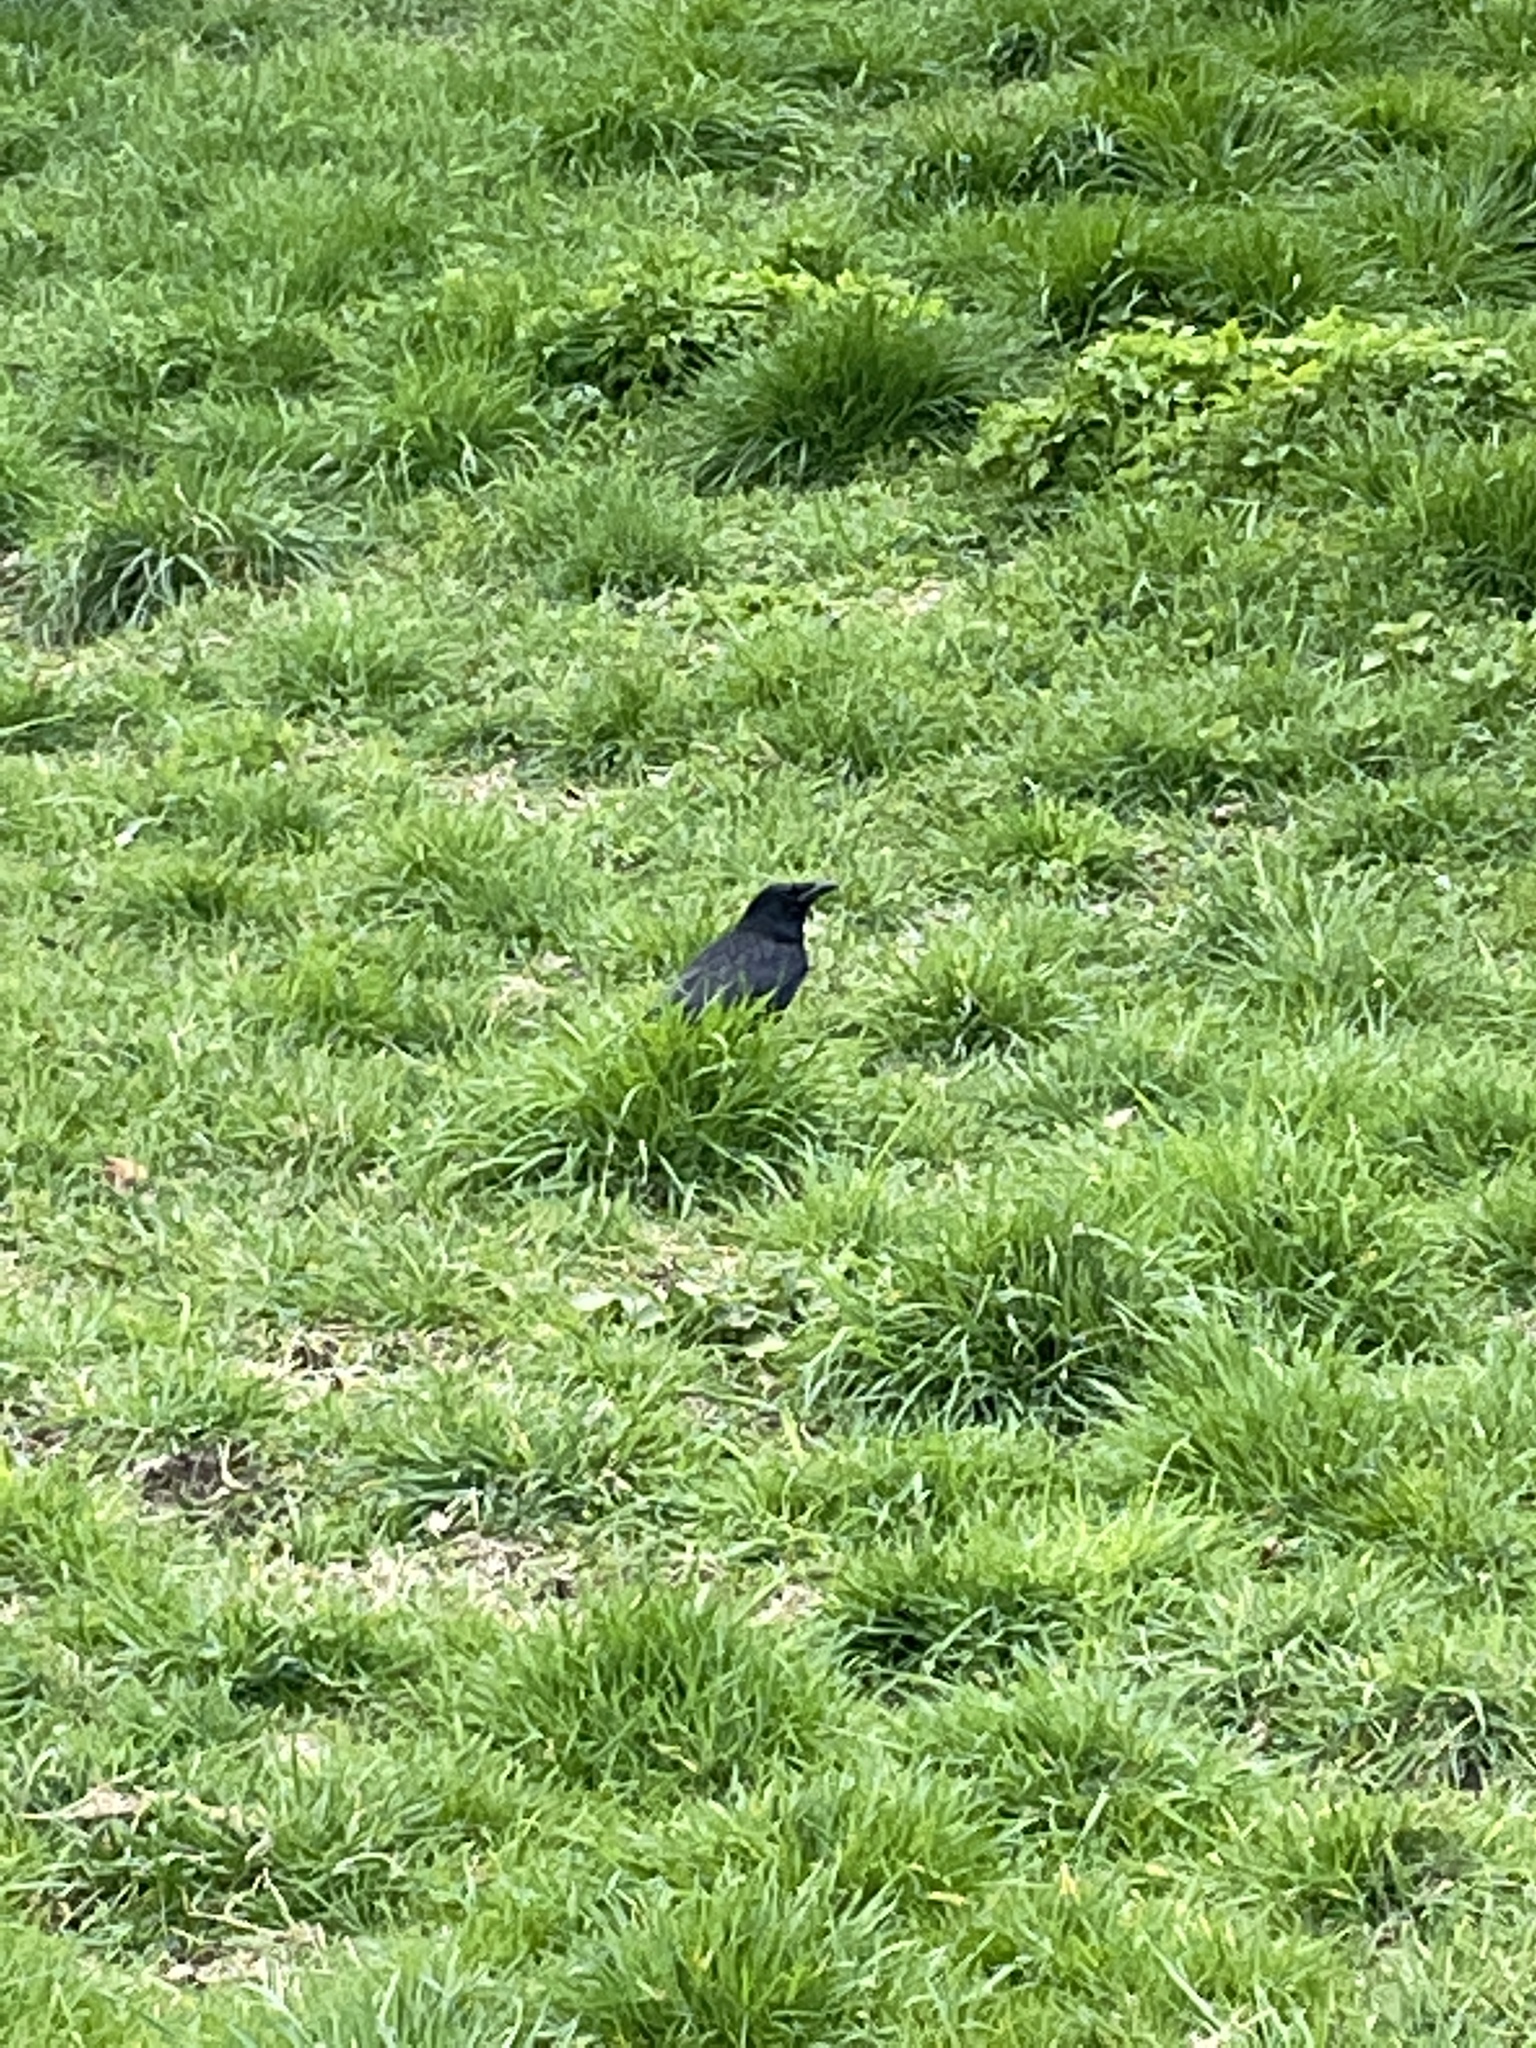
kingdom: Animalia
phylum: Chordata
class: Aves
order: Passeriformes
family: Corvidae
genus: Corvus
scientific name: Corvus corone
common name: Carrion crow
